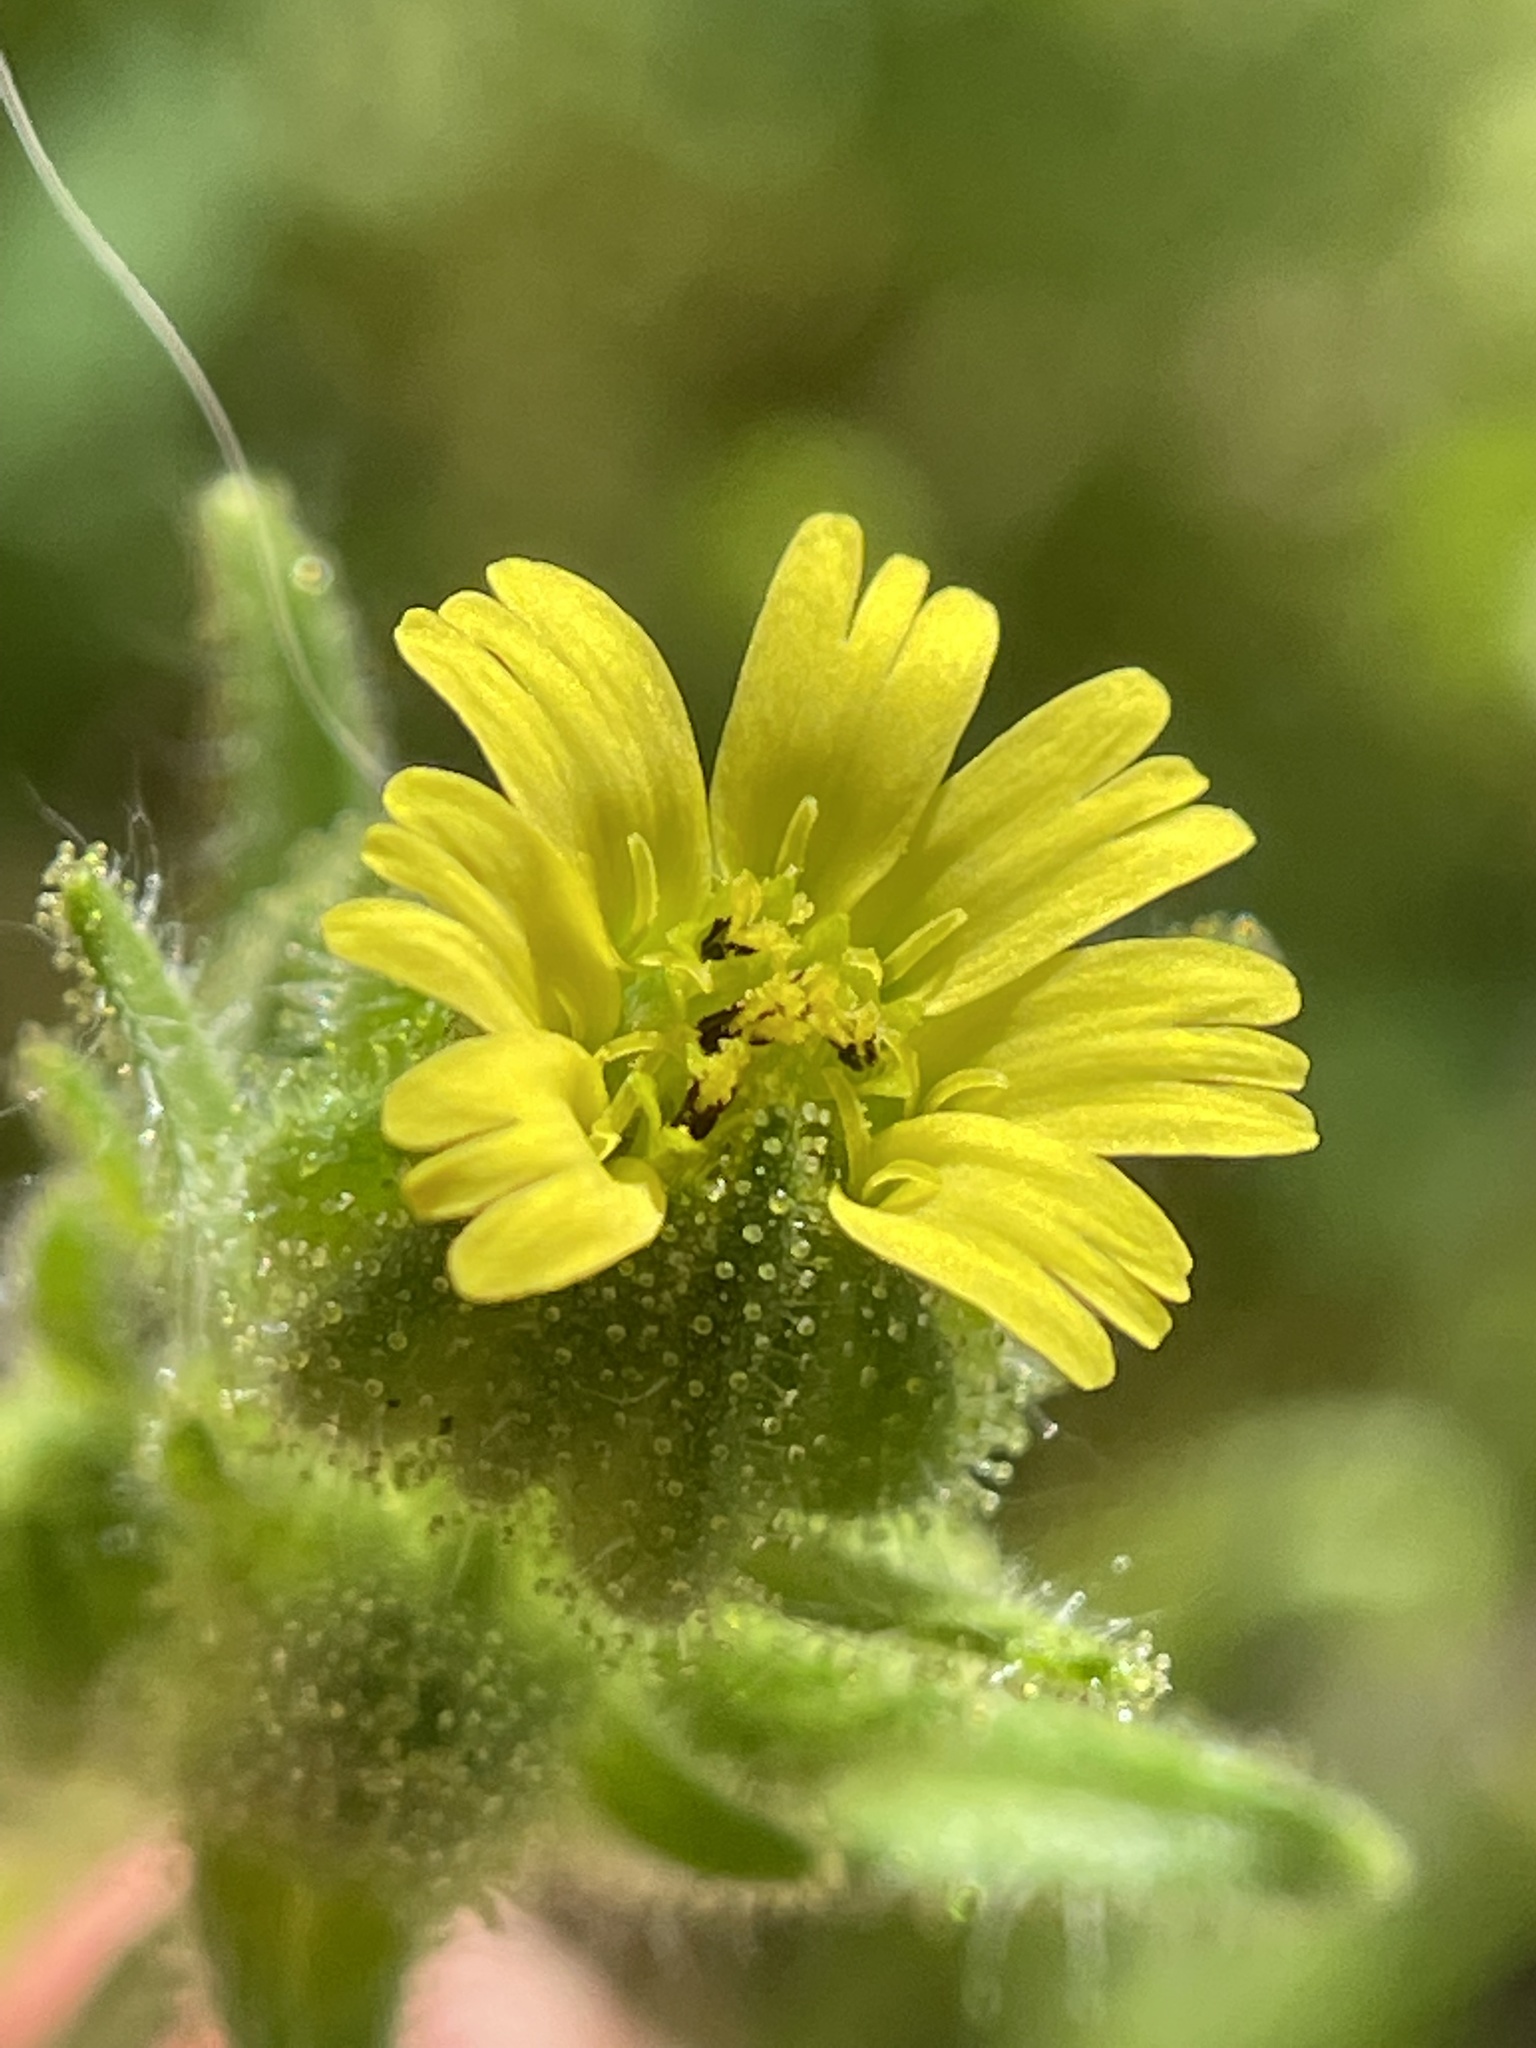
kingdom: Plantae
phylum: Tracheophyta
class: Magnoliopsida
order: Asterales
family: Asteraceae
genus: Madia
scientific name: Madia gracilis
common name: Grassy tarweed
